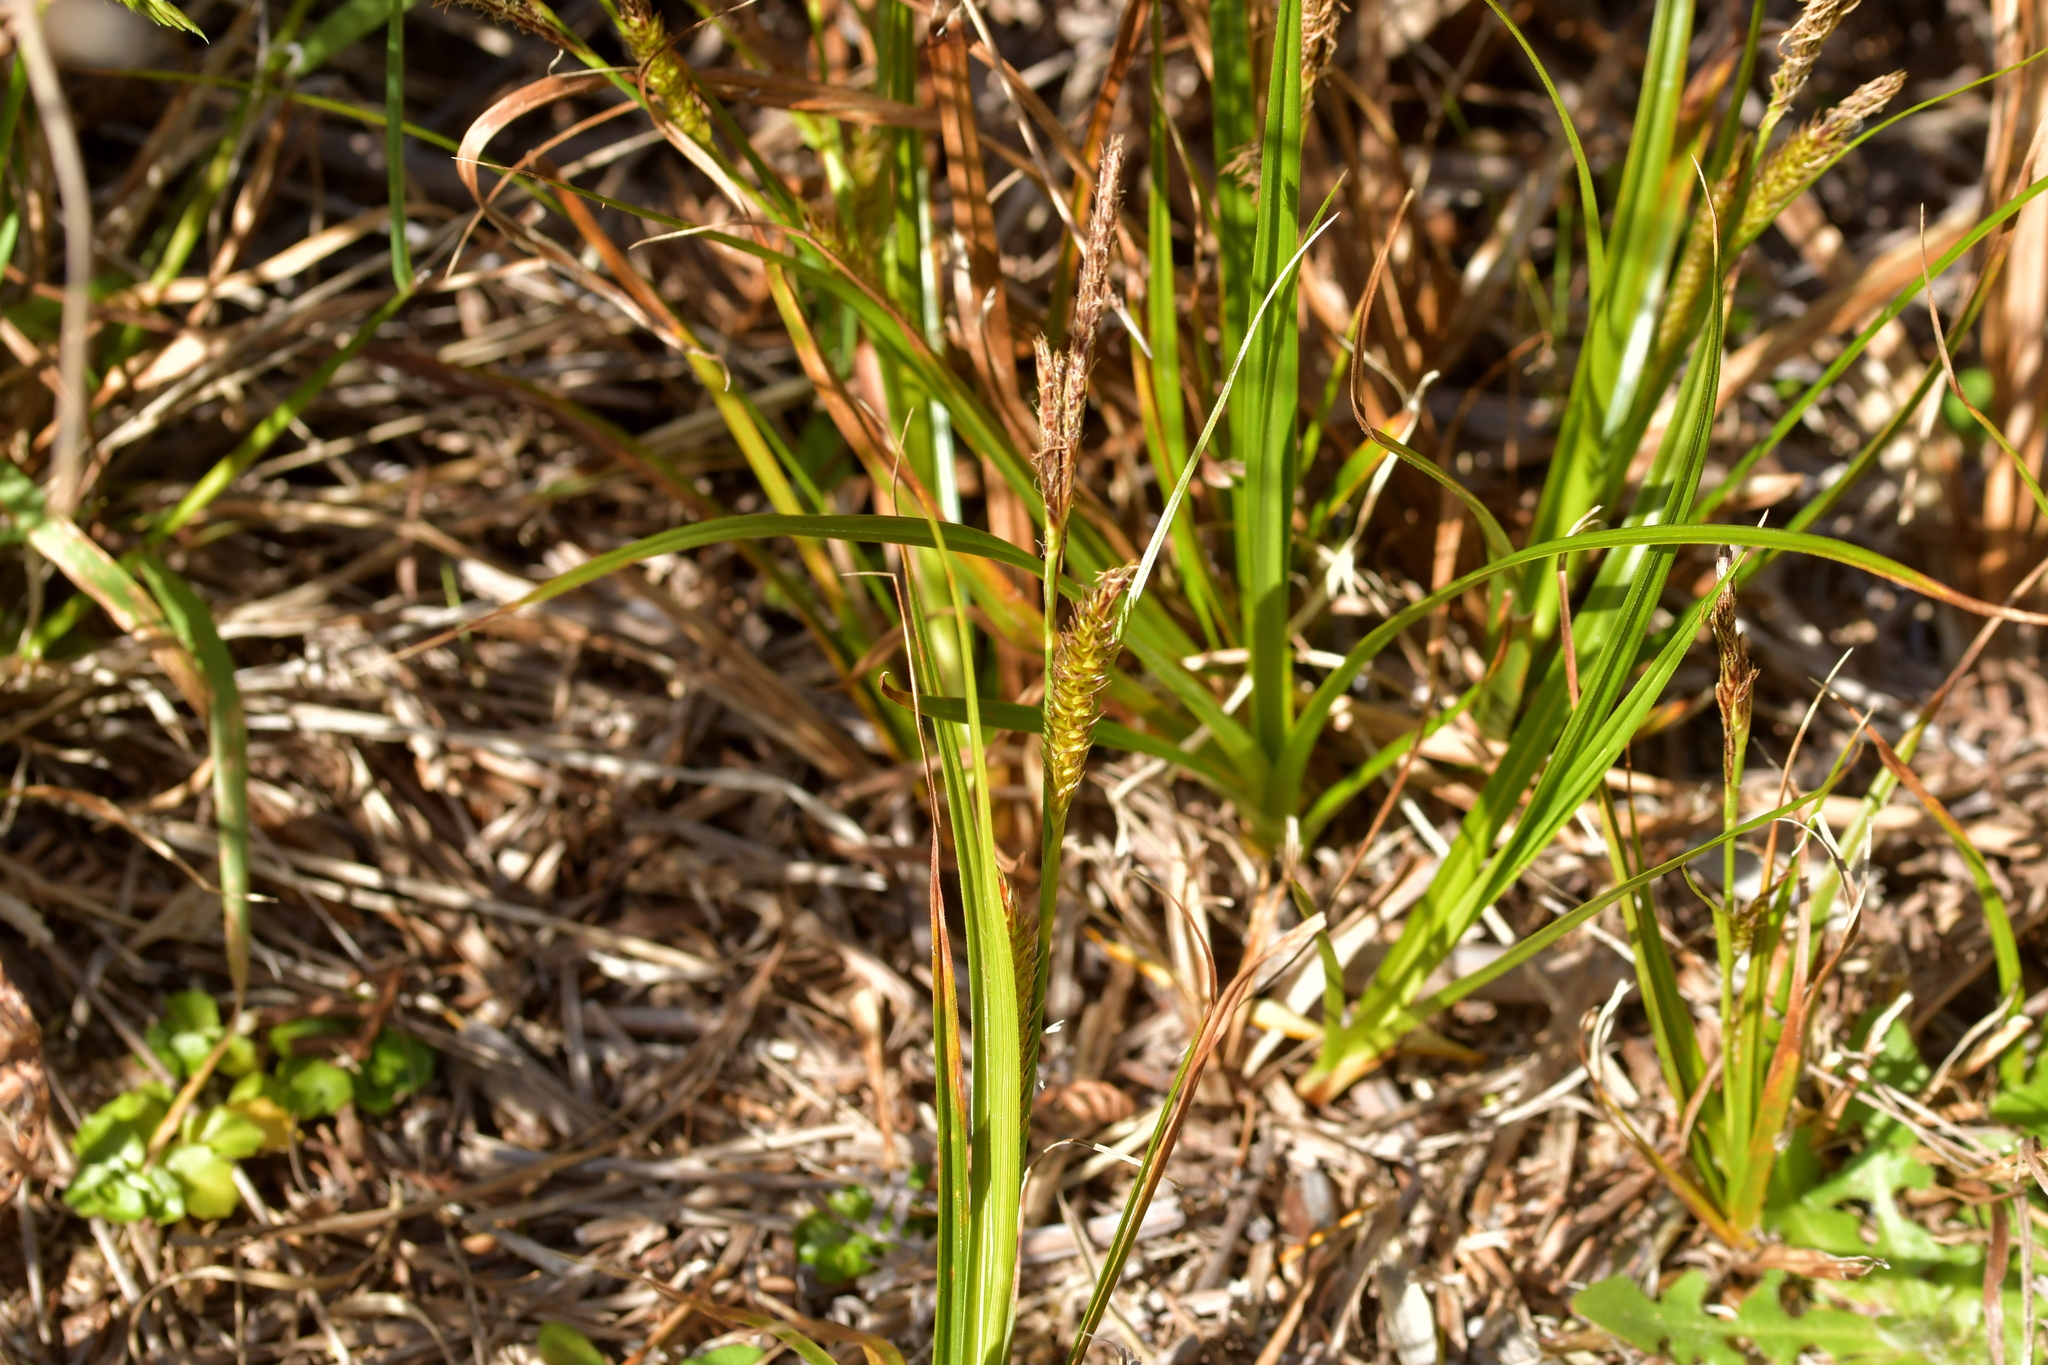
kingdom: Plantae
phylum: Tracheophyta
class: Liliopsida
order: Poales
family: Cyperaceae
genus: Carex
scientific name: Carex ventosa
